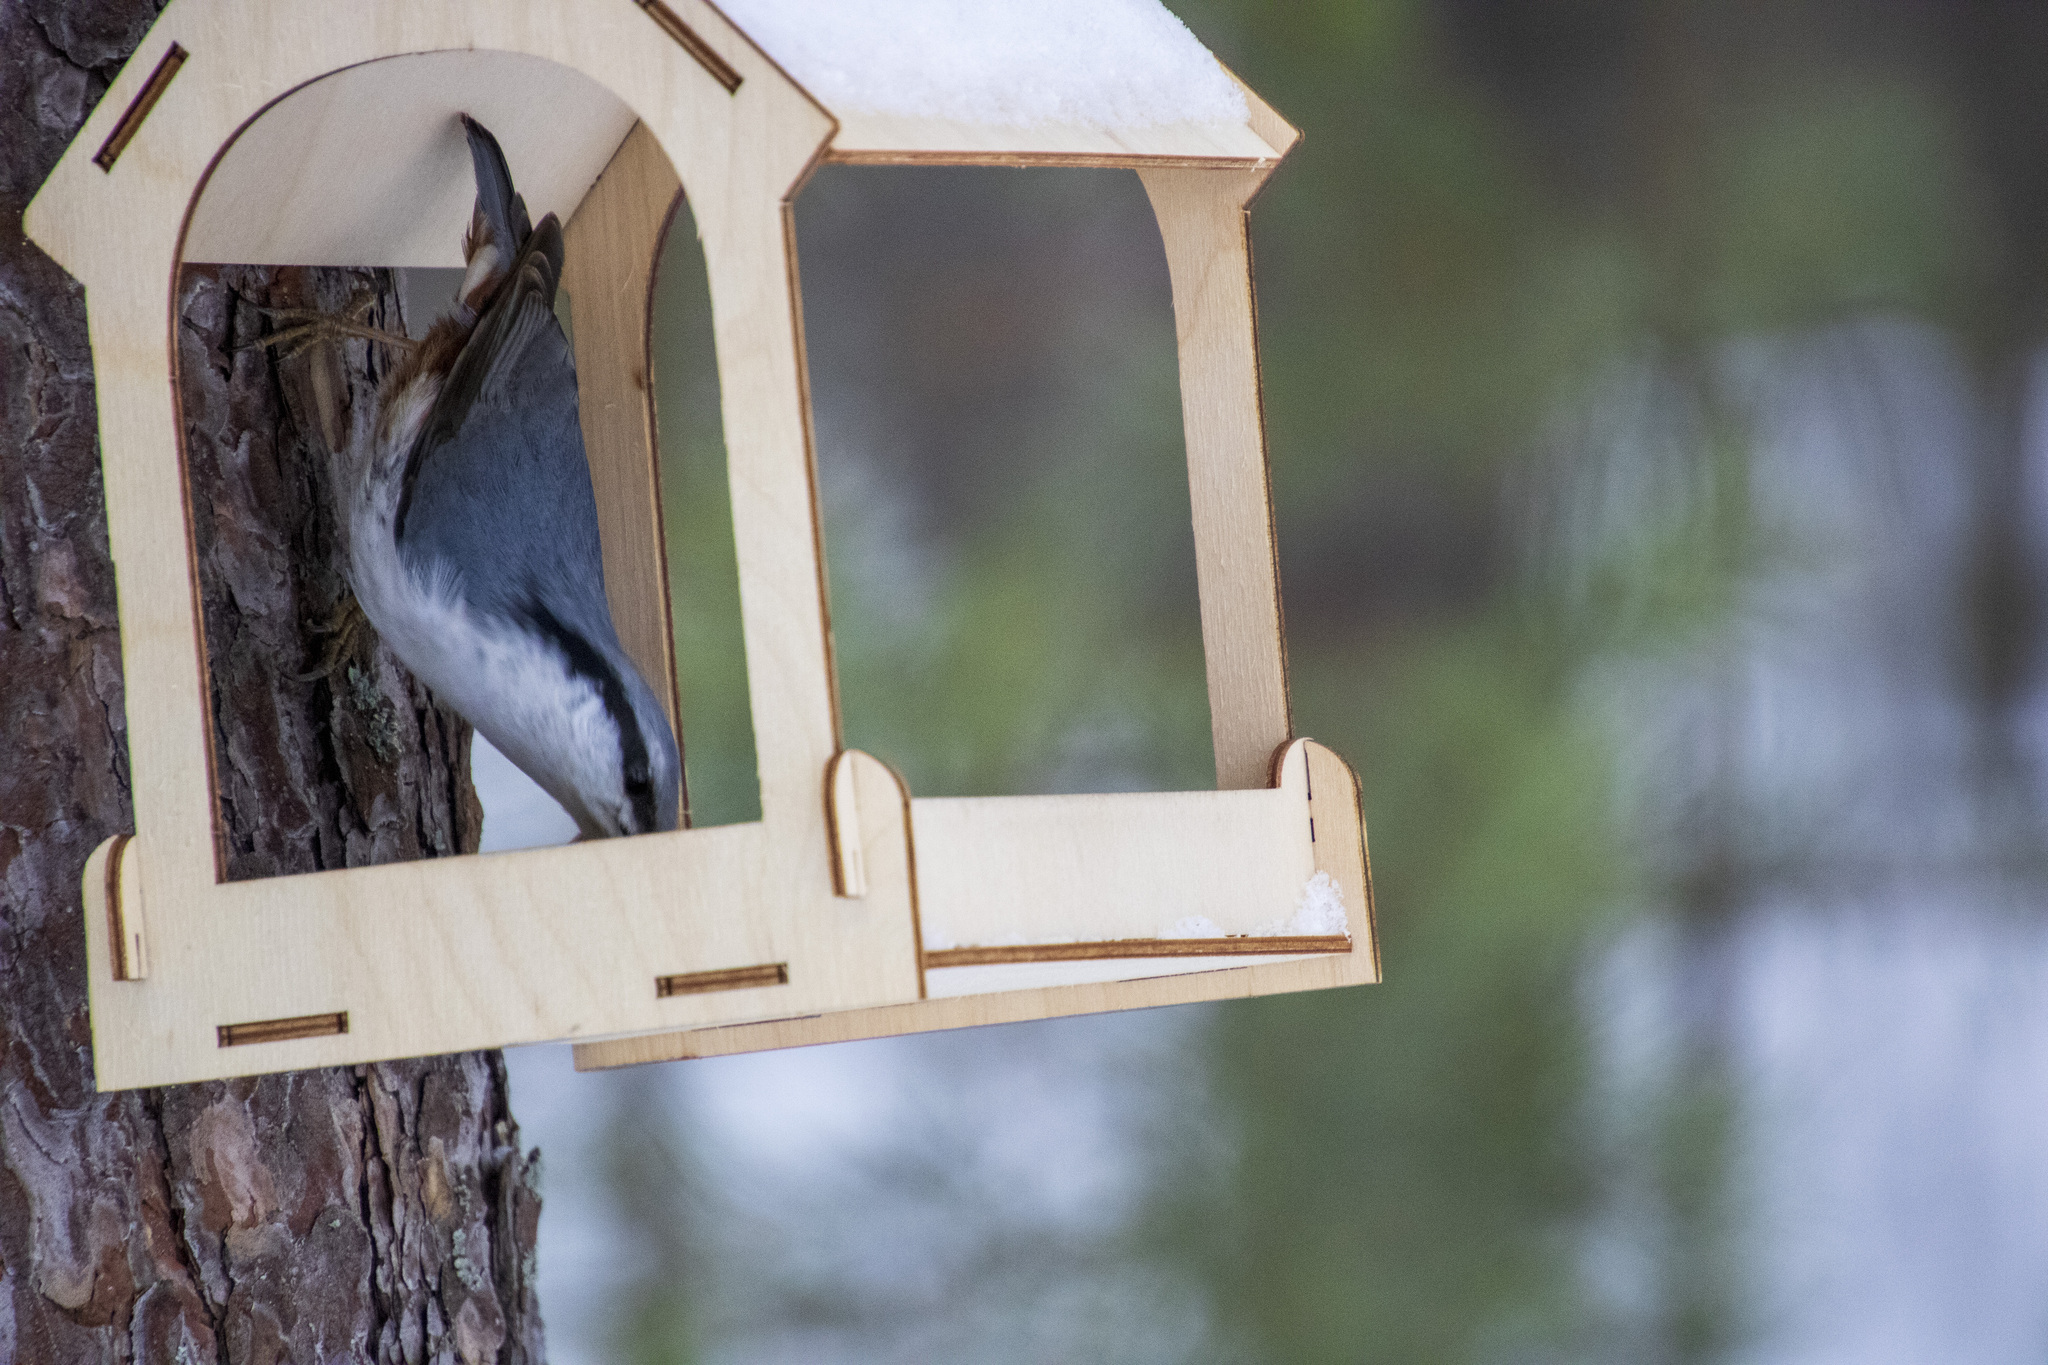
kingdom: Animalia
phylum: Chordata
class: Aves
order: Passeriformes
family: Sittidae
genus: Sitta
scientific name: Sitta europaea
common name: Eurasian nuthatch
